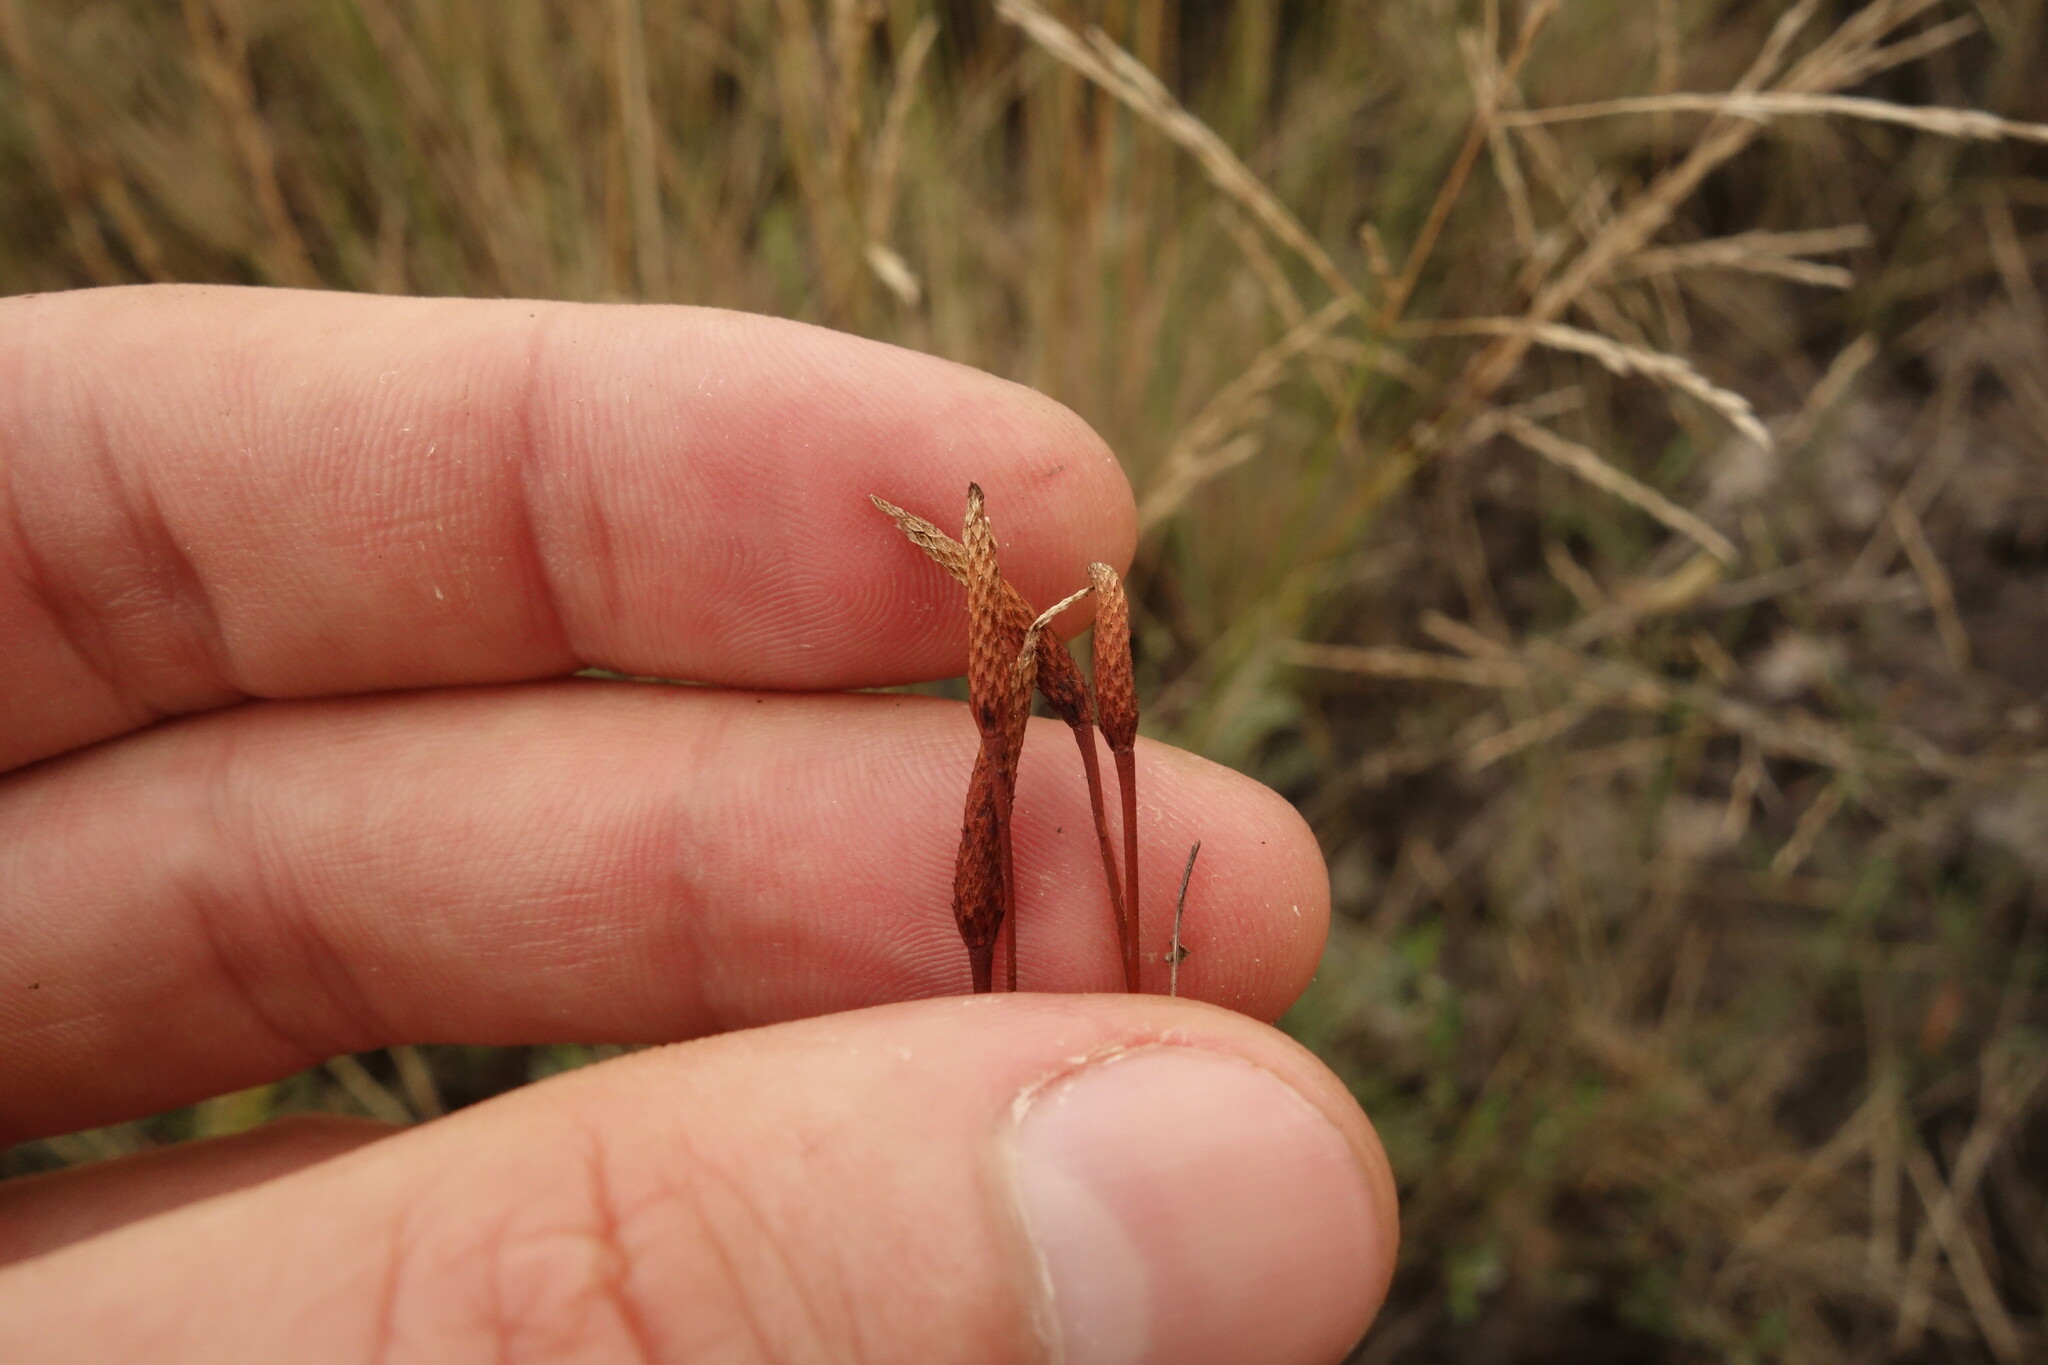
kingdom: Plantae
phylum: Tracheophyta
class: Magnoliopsida
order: Ranunculales
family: Ranunculaceae
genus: Myosurus
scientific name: Myosurus minimus
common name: Mousetail
